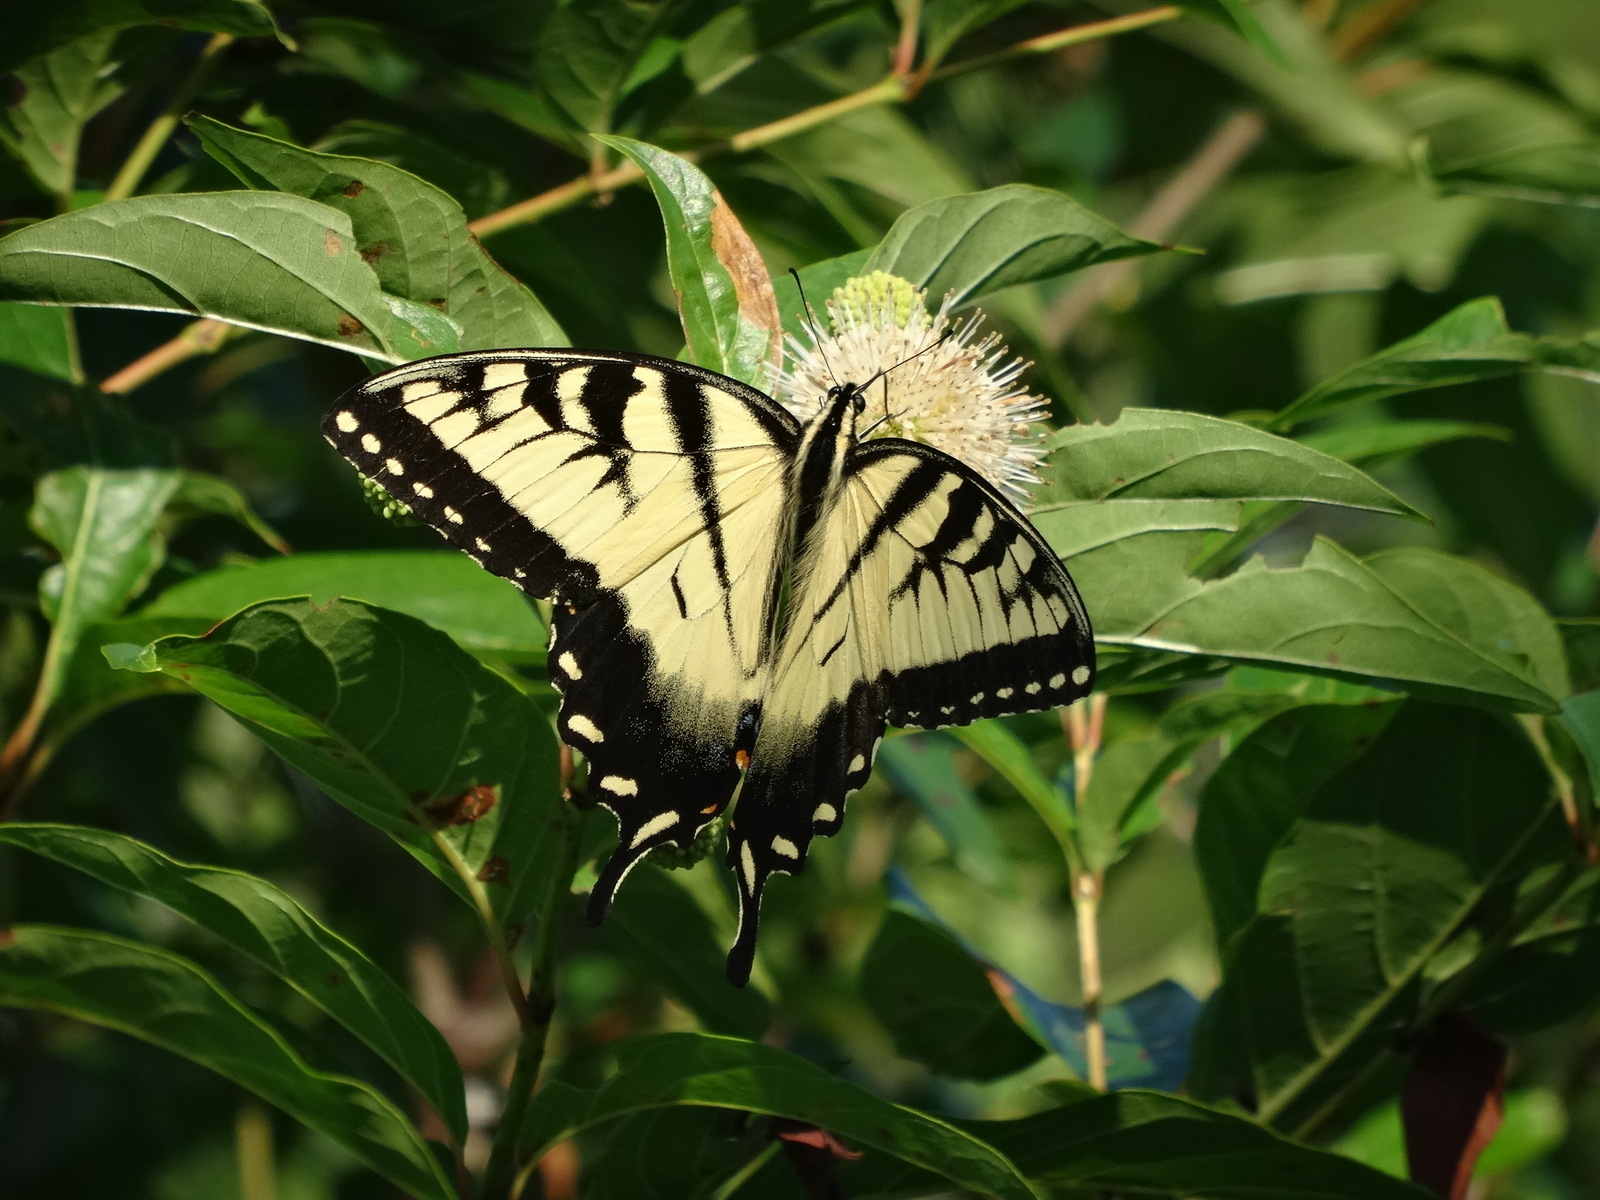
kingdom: Animalia
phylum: Arthropoda
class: Insecta
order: Lepidoptera
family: Papilionidae
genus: Papilio
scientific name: Papilio glaucus
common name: Tiger swallowtail
